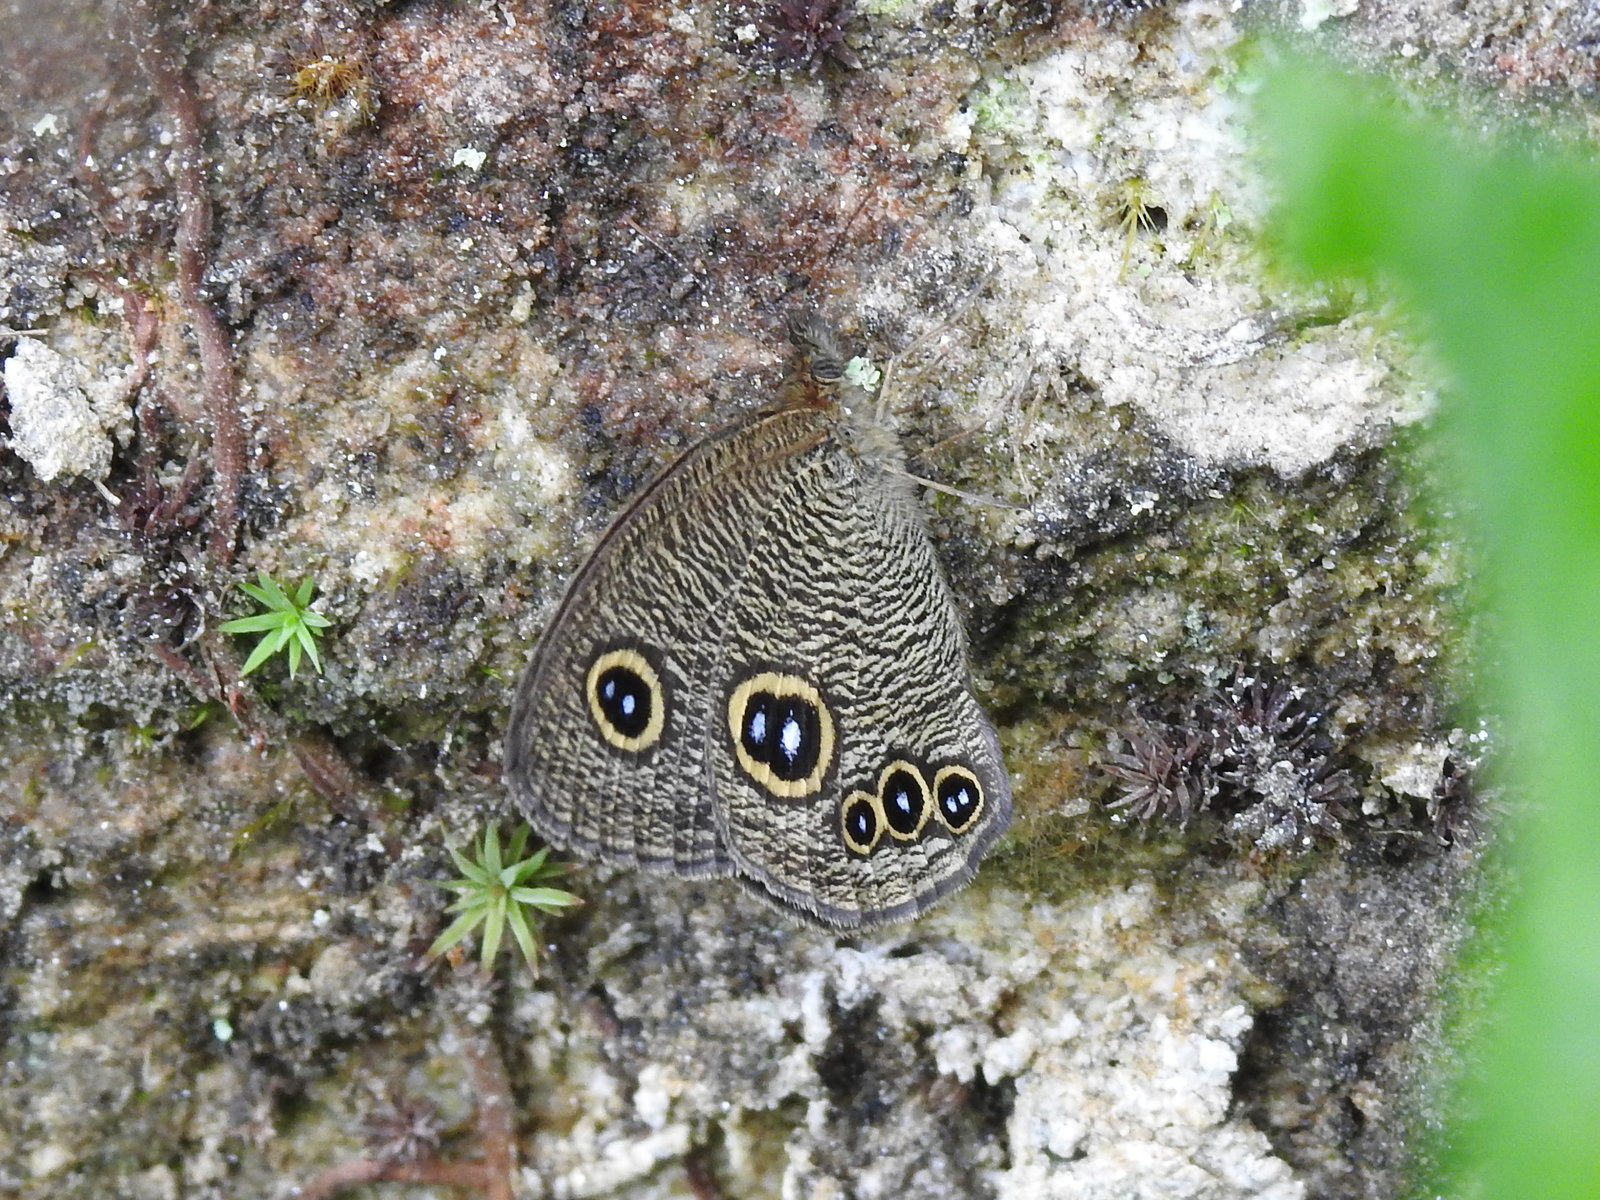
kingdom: Animalia
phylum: Arthropoda
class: Insecta
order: Lepidoptera
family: Nymphalidae
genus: Ypthima
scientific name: Ypthima nikaea
